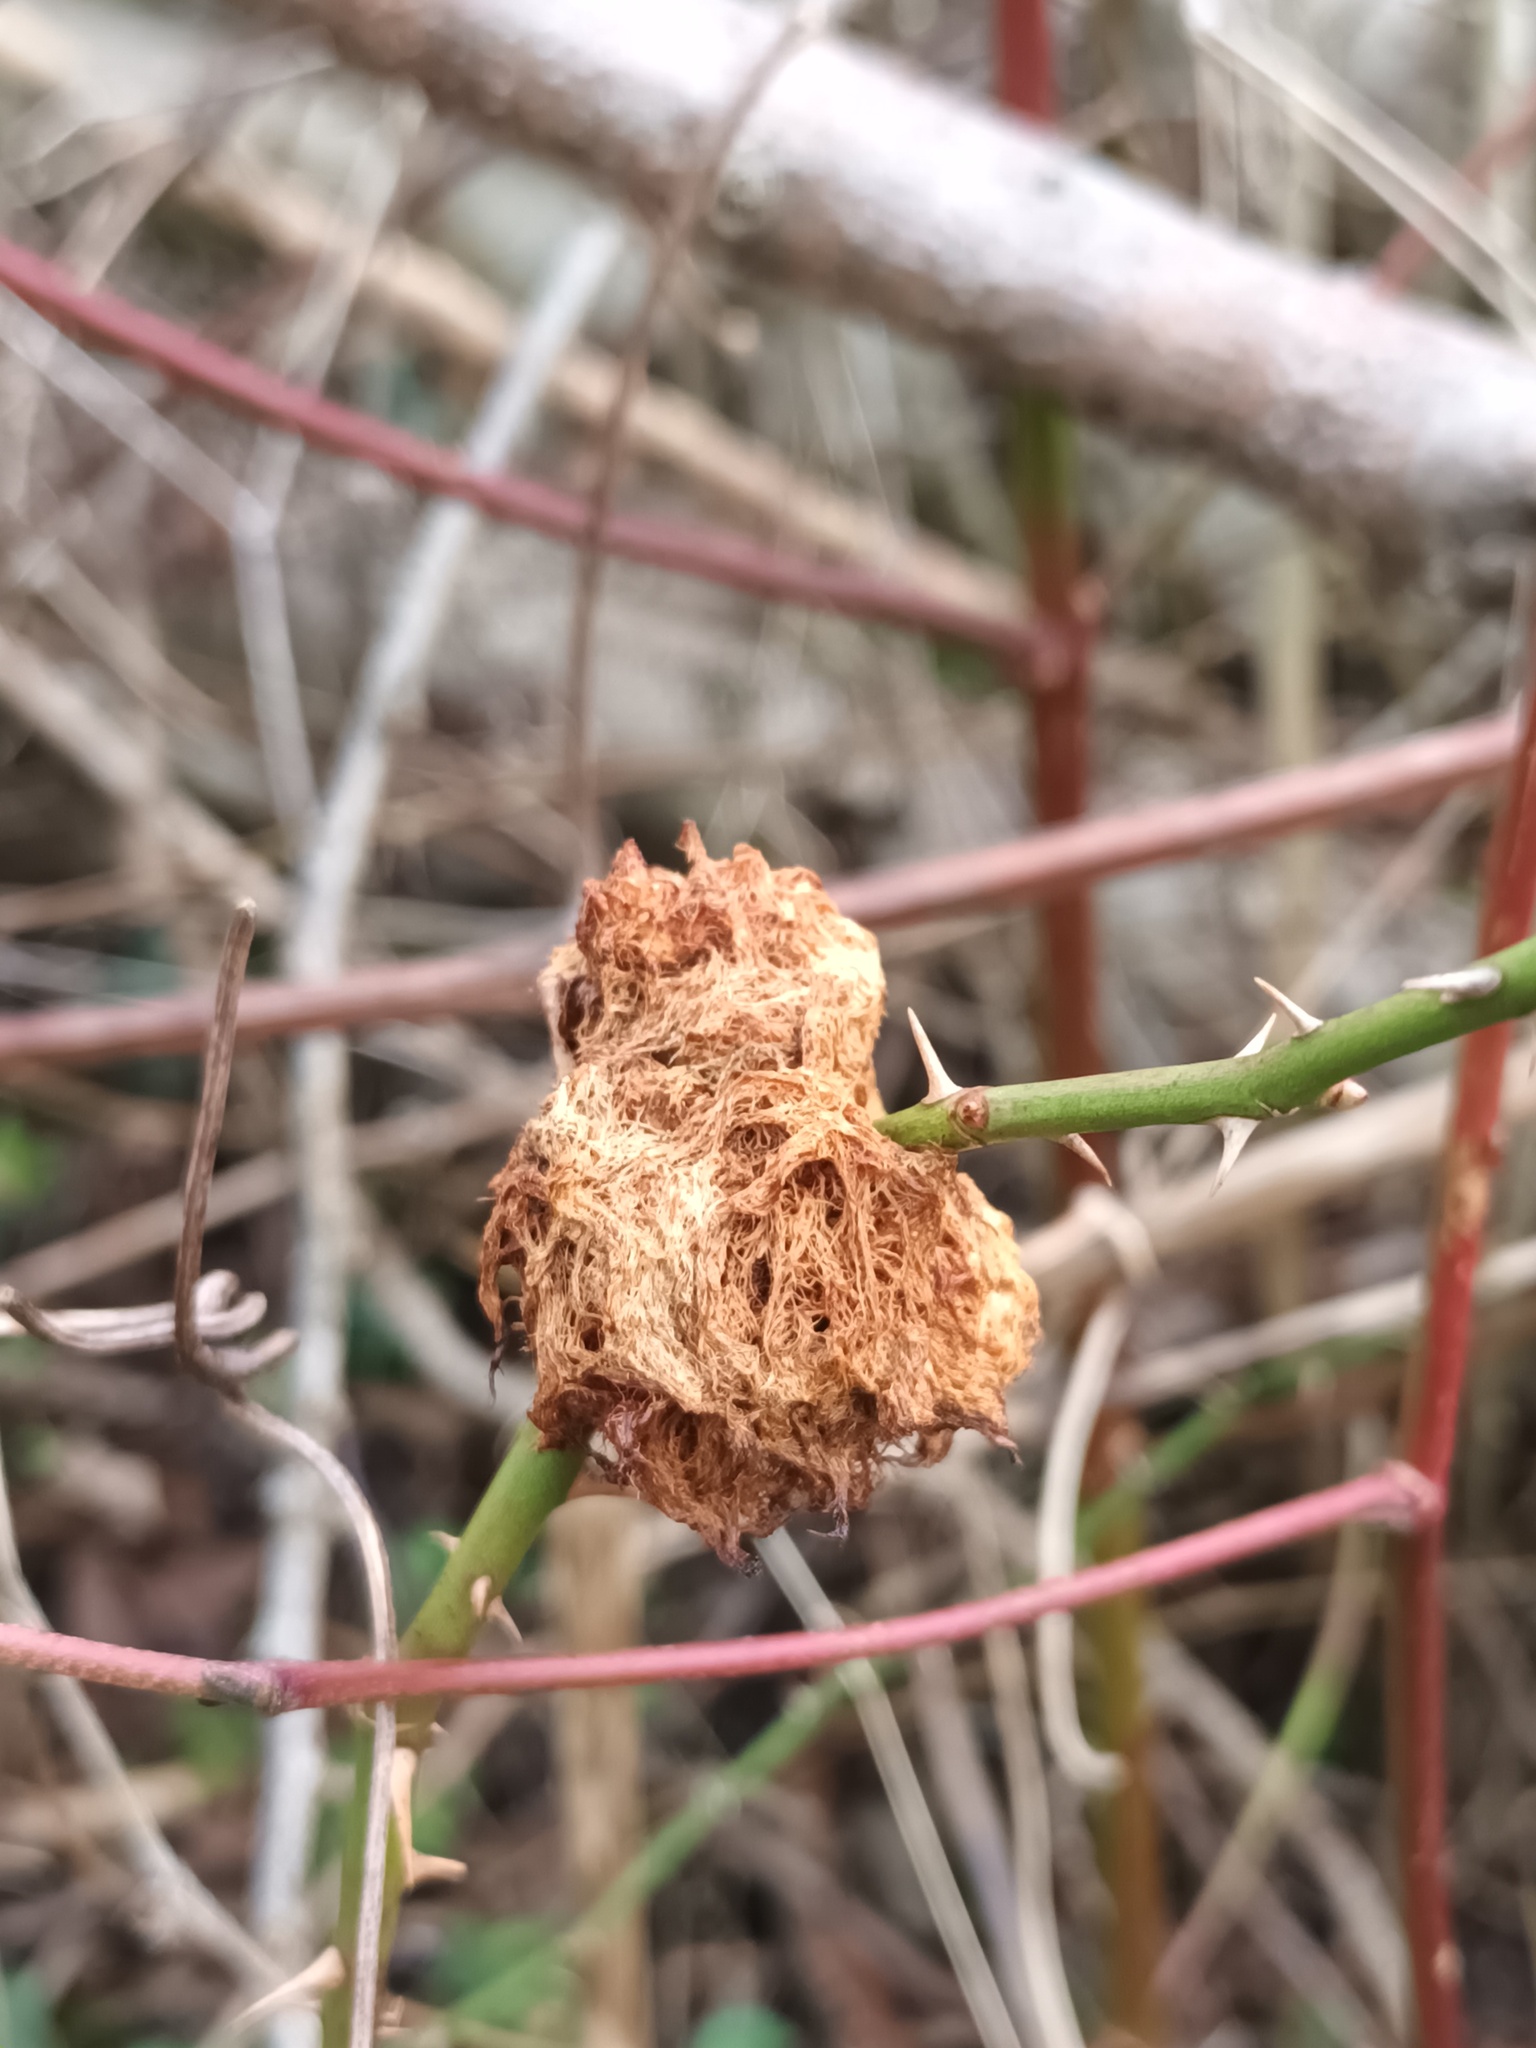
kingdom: Animalia
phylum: Arthropoda
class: Insecta
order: Hymenoptera
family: Cynipidae
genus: Diplolepis
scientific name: Diplolepis rosae
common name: Bedeguar gall
